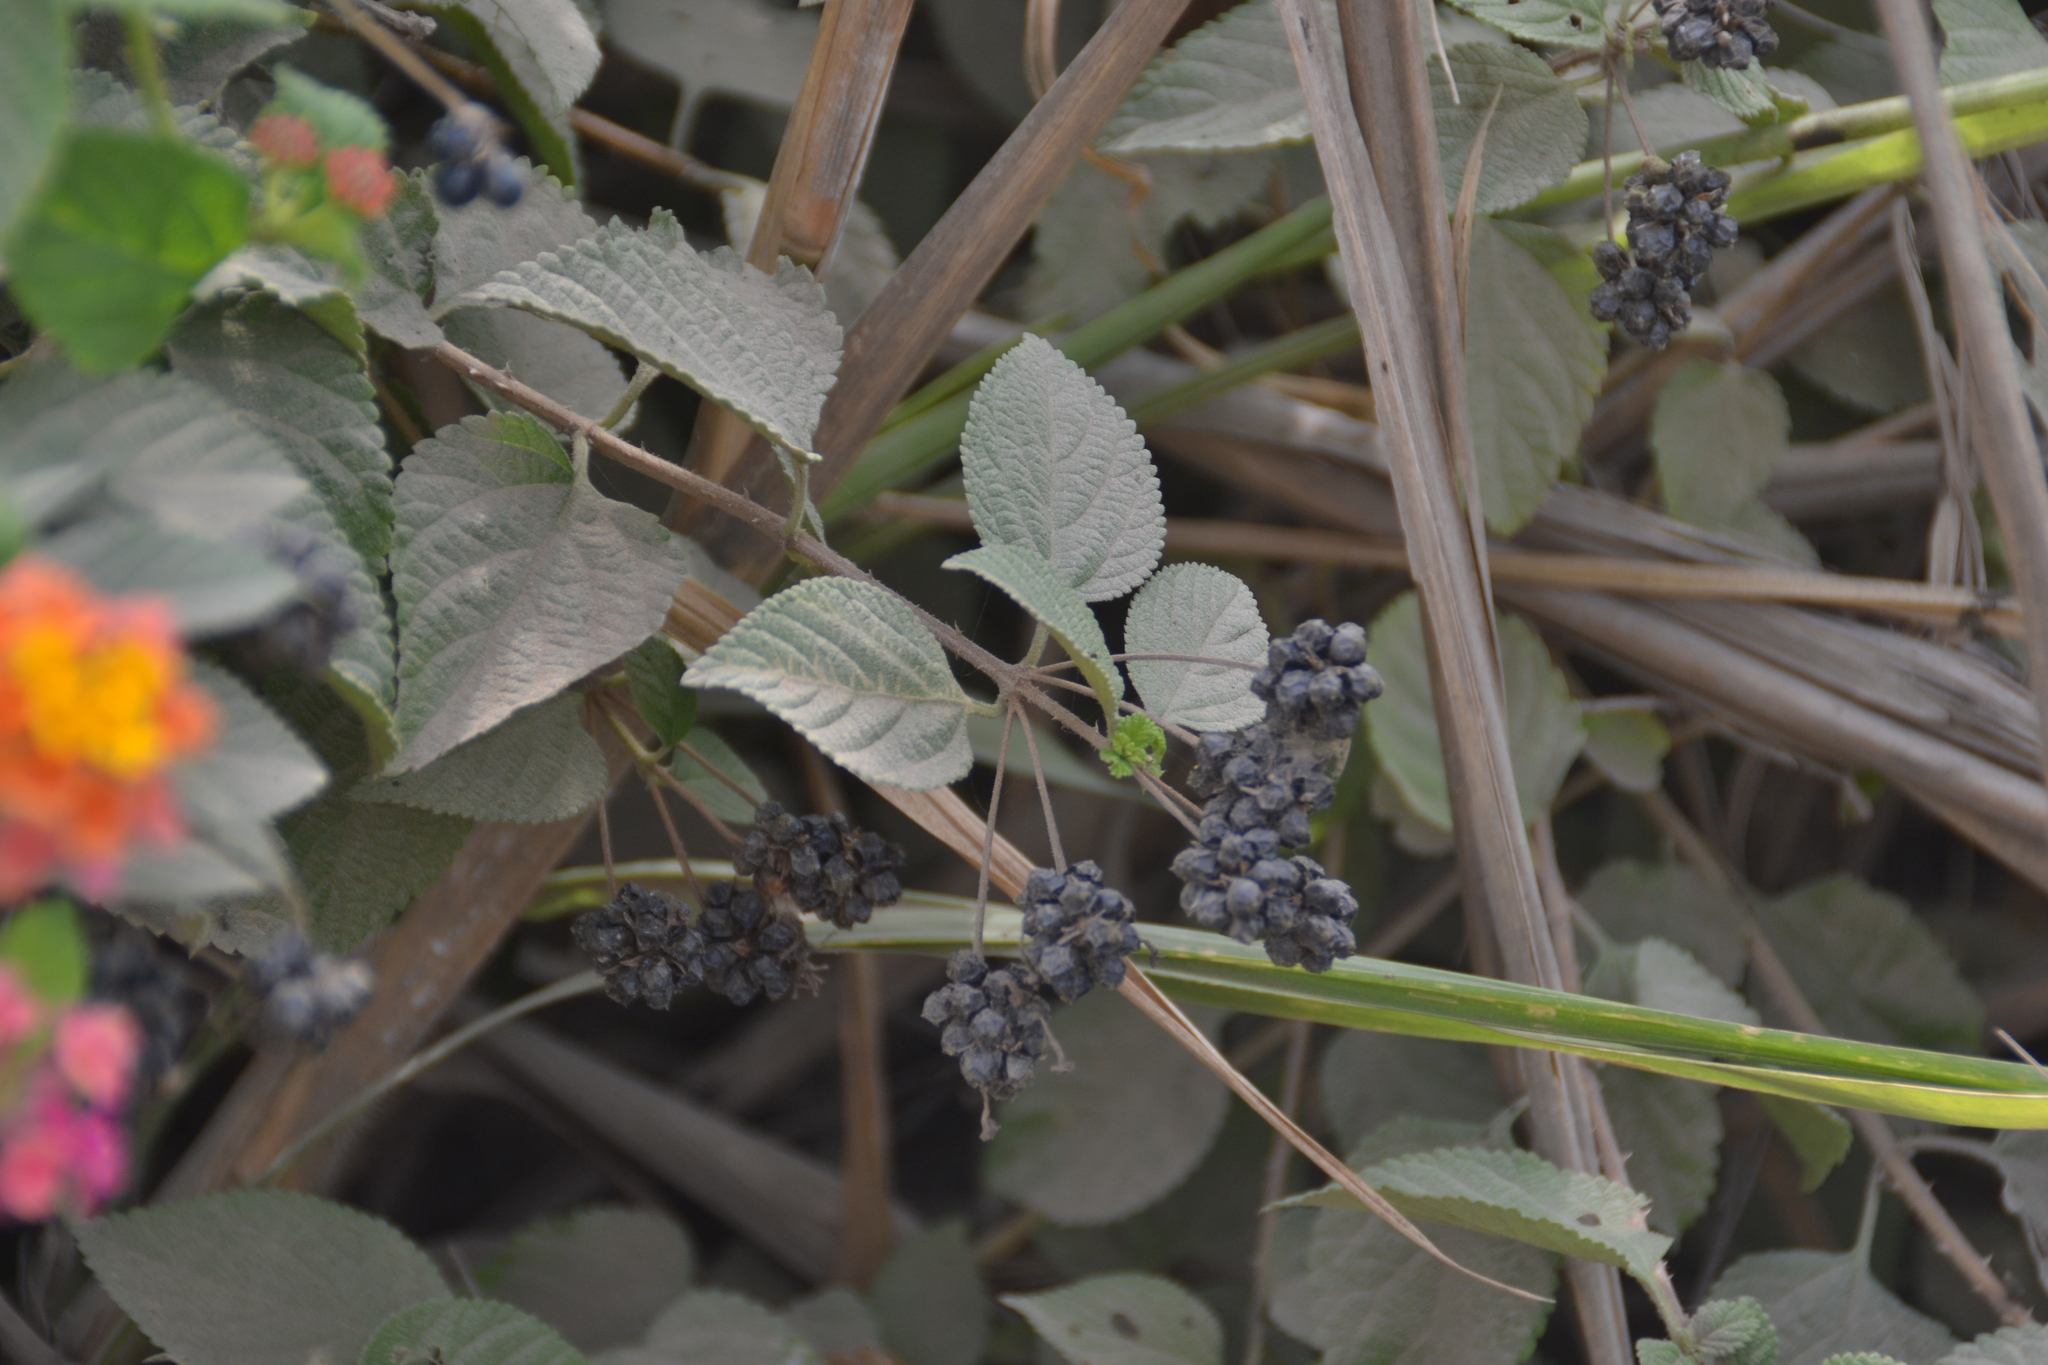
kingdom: Plantae
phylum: Tracheophyta
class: Magnoliopsida
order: Lamiales
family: Verbenaceae
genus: Lantana
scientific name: Lantana camara
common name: Lantana
